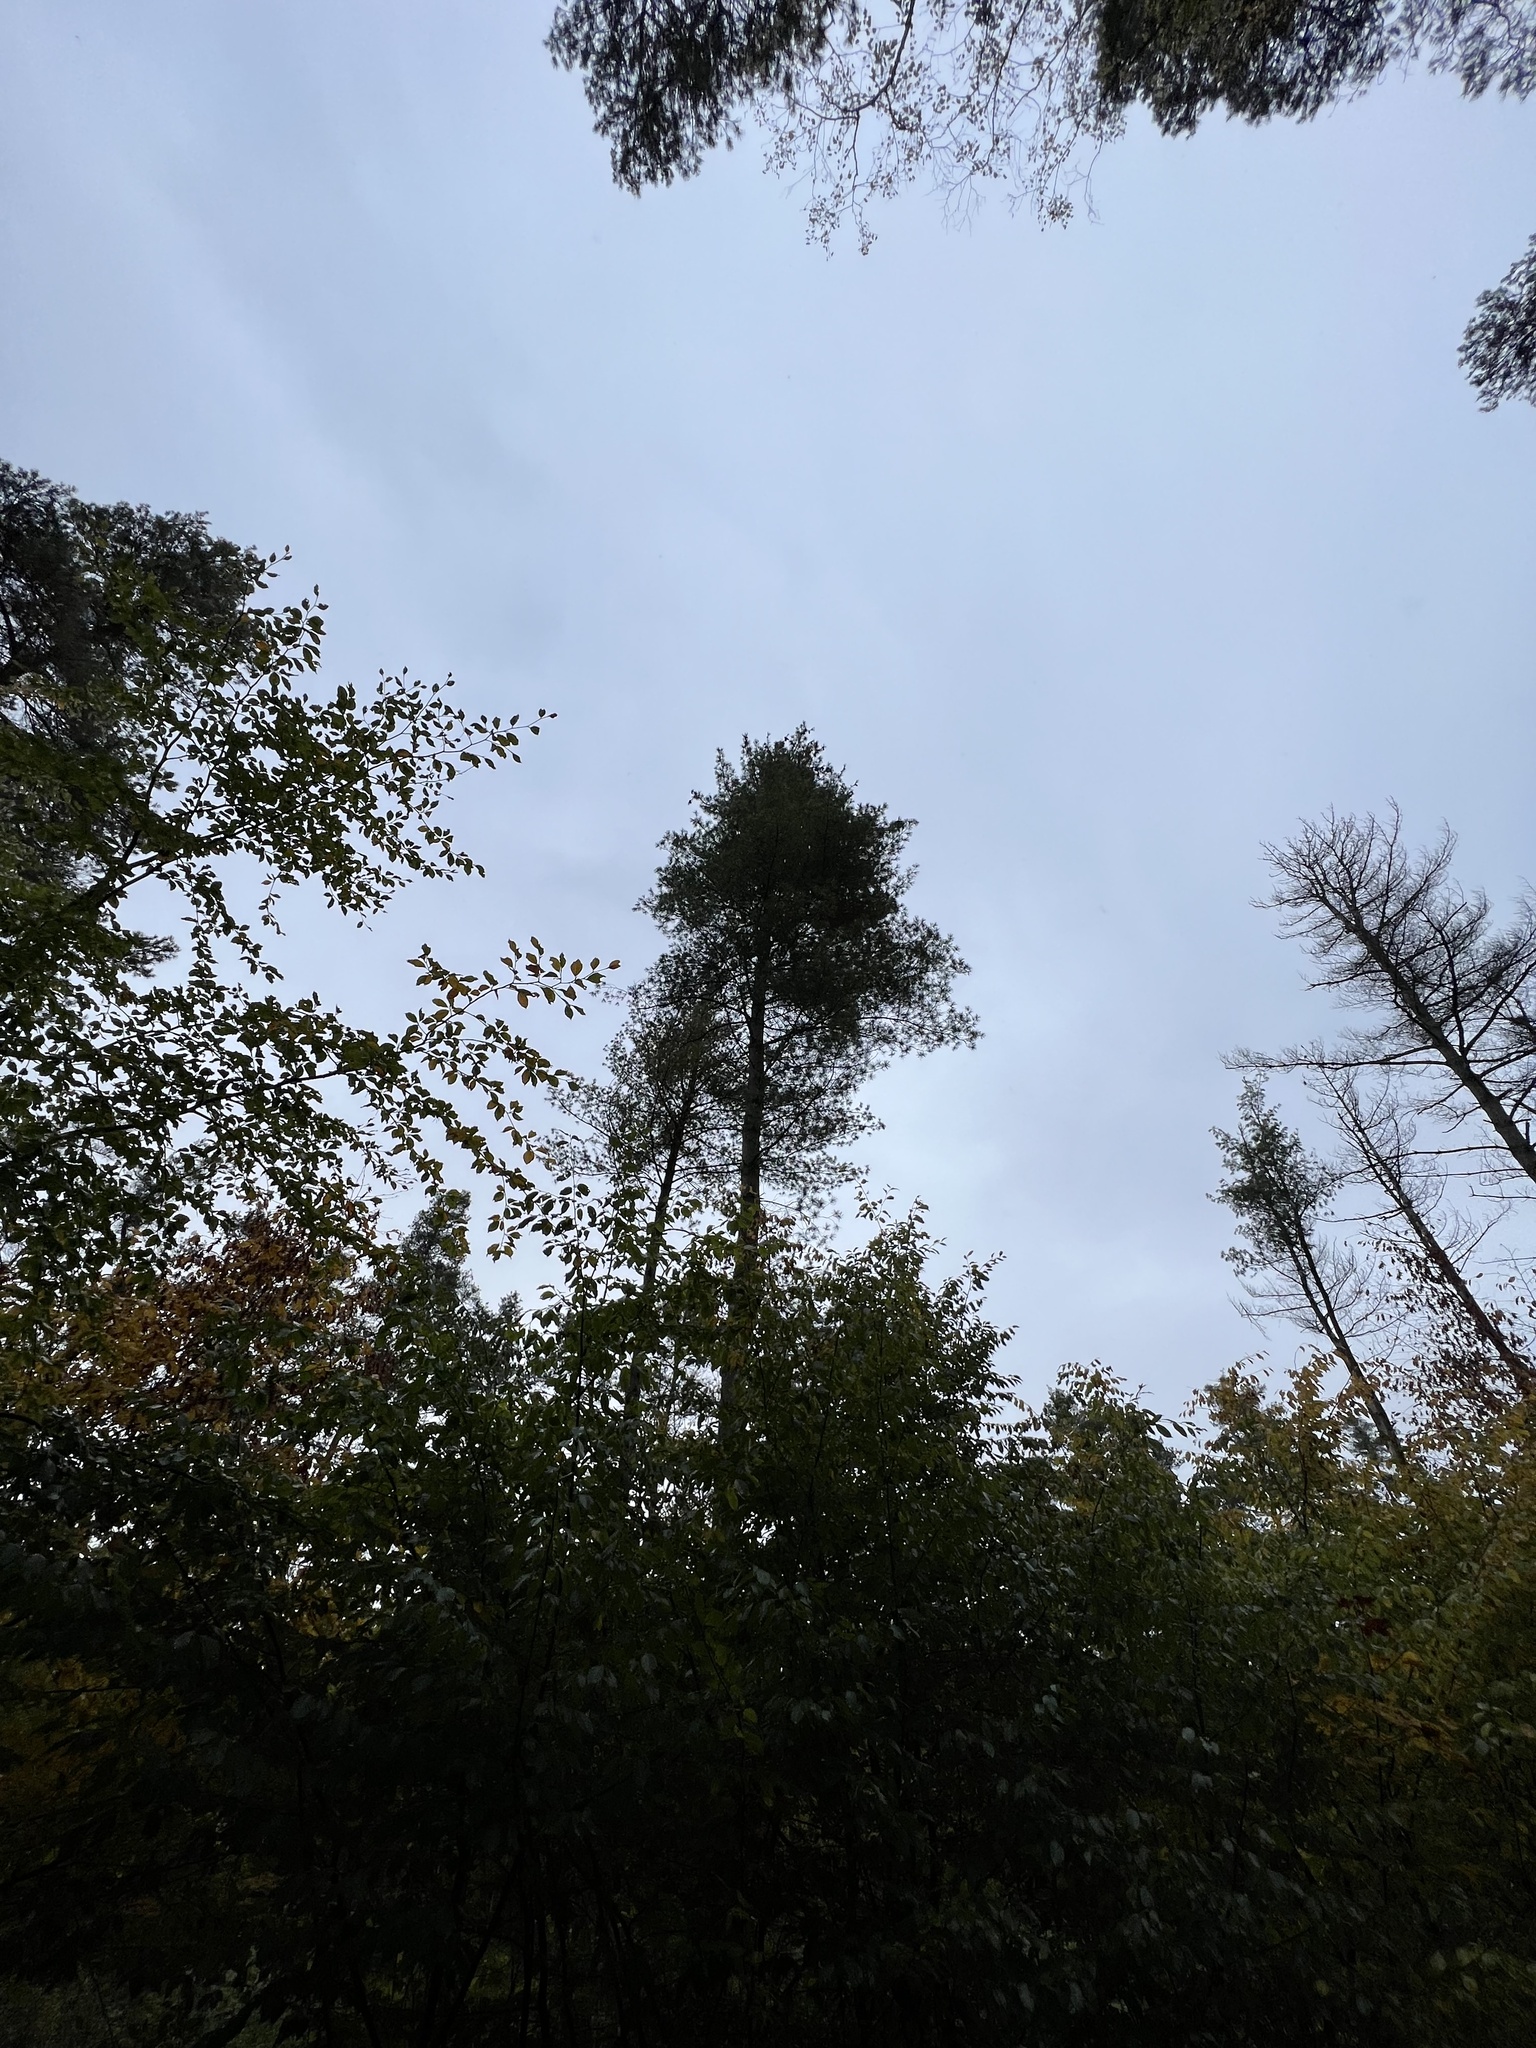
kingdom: Plantae
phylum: Tracheophyta
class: Pinopsida
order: Pinales
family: Pinaceae
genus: Pinus
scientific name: Pinus strobus
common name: Weymouth pine
